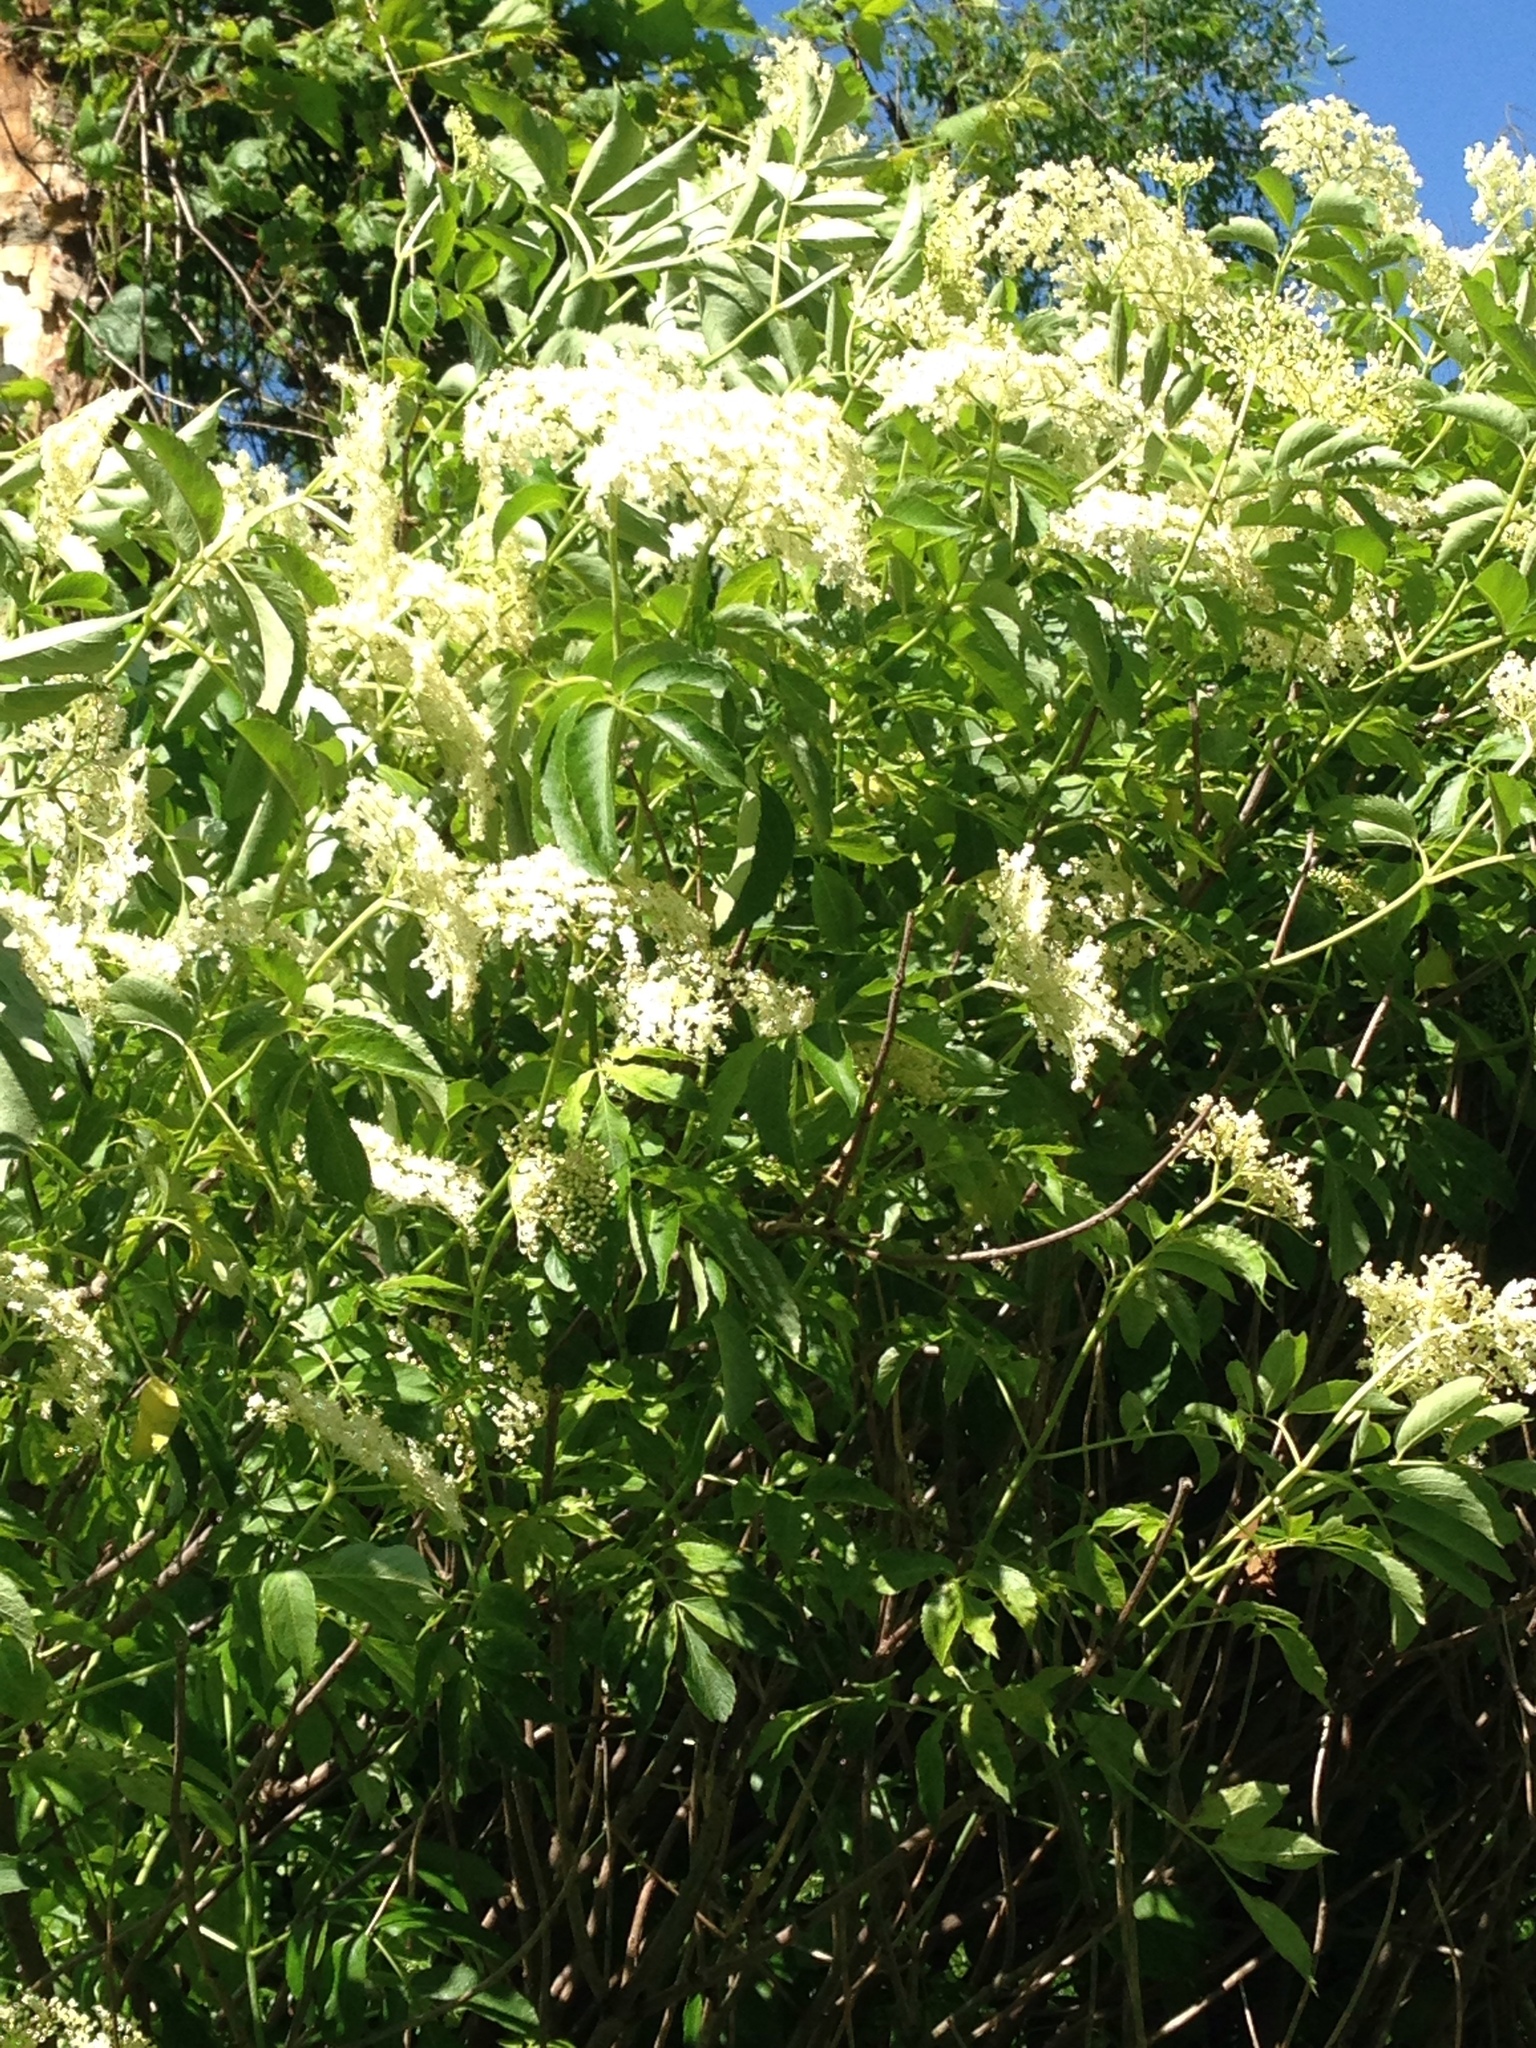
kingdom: Plantae
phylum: Tracheophyta
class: Magnoliopsida
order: Dipsacales
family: Viburnaceae
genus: Sambucus
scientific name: Sambucus canadensis
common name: American elder
